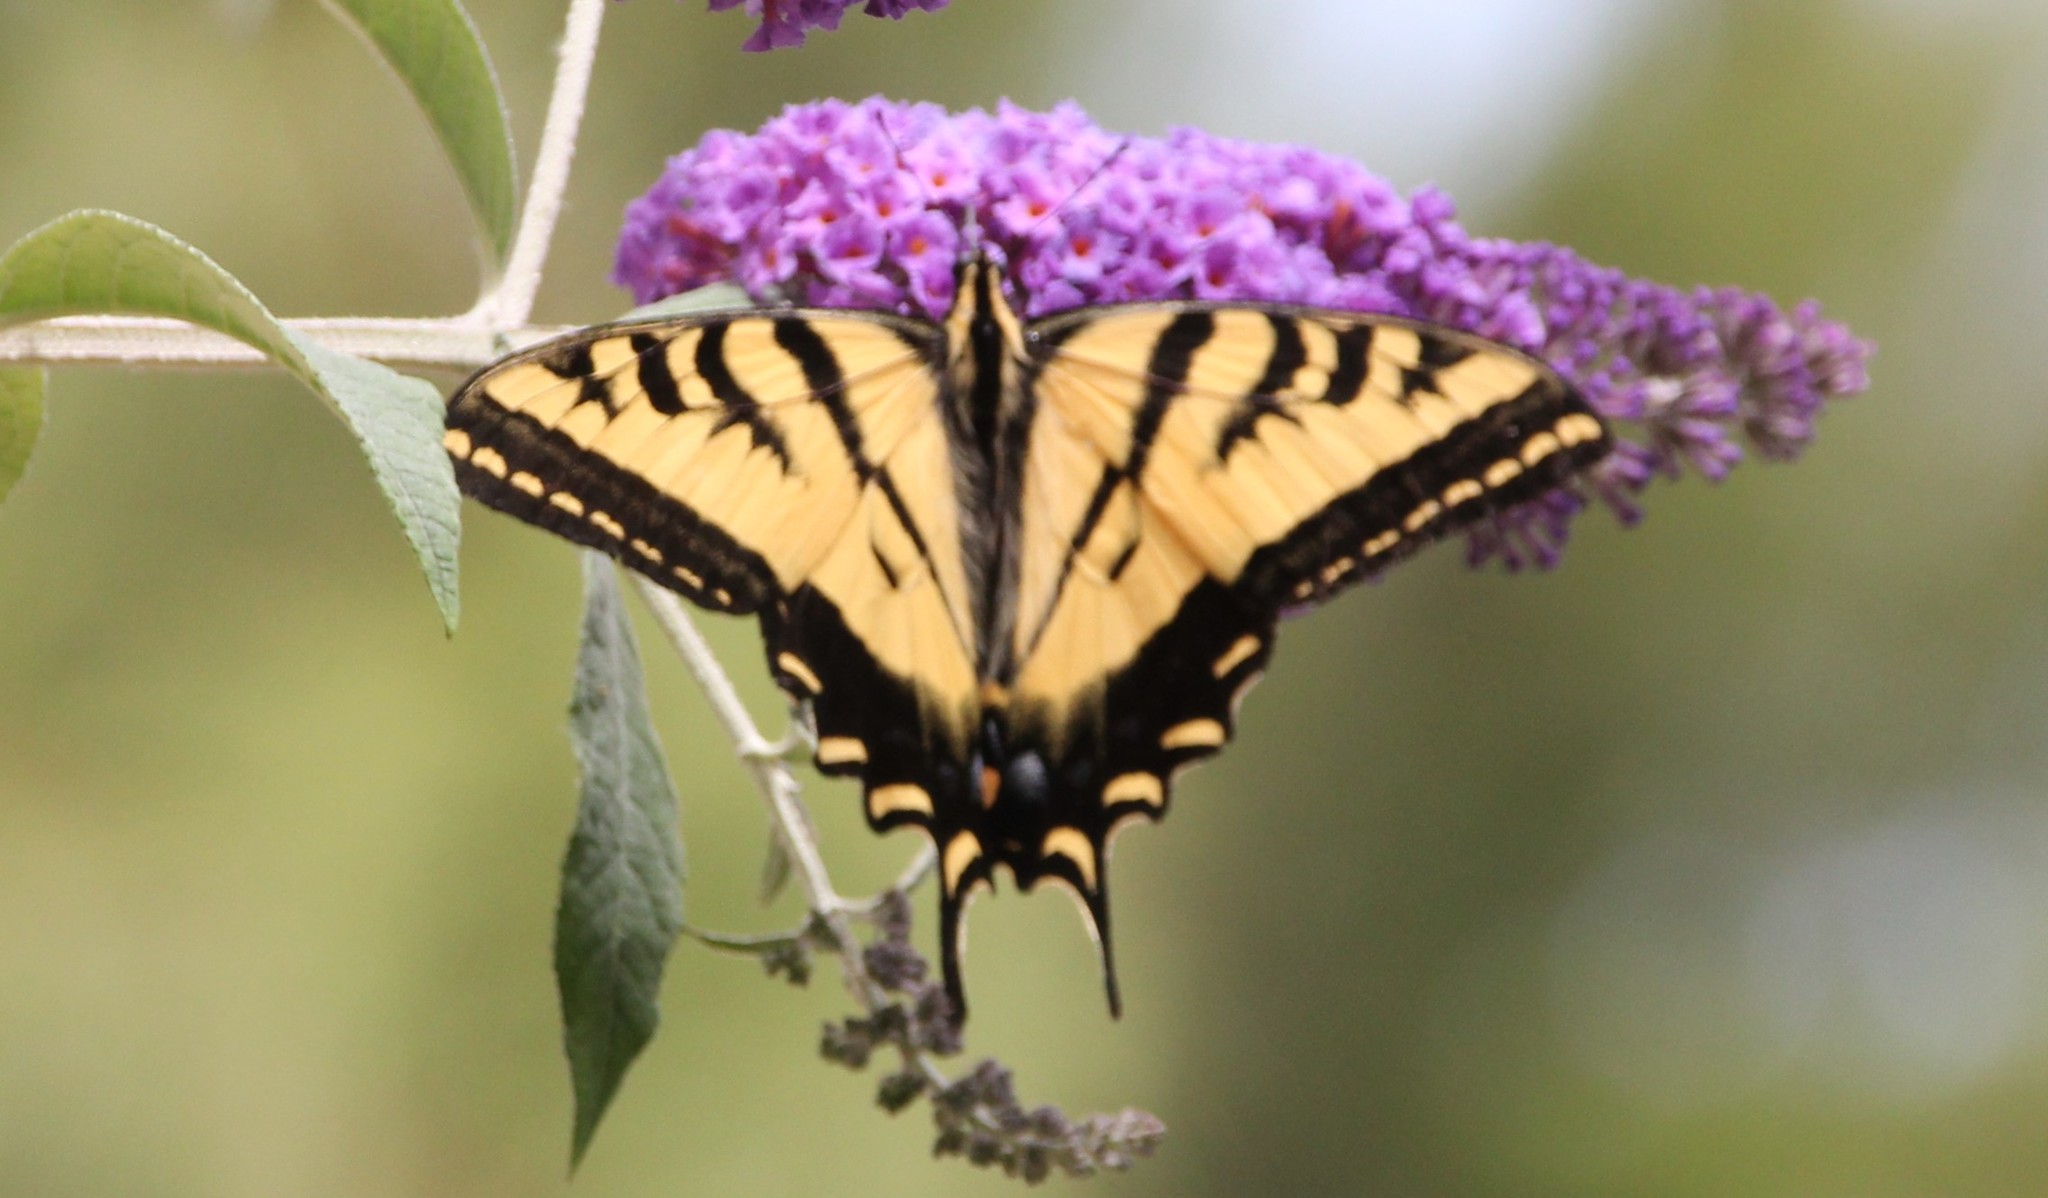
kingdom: Animalia
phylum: Arthropoda
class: Insecta
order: Lepidoptera
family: Papilionidae
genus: Papilio
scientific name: Papilio rutulus
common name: Western tiger swallowtail
